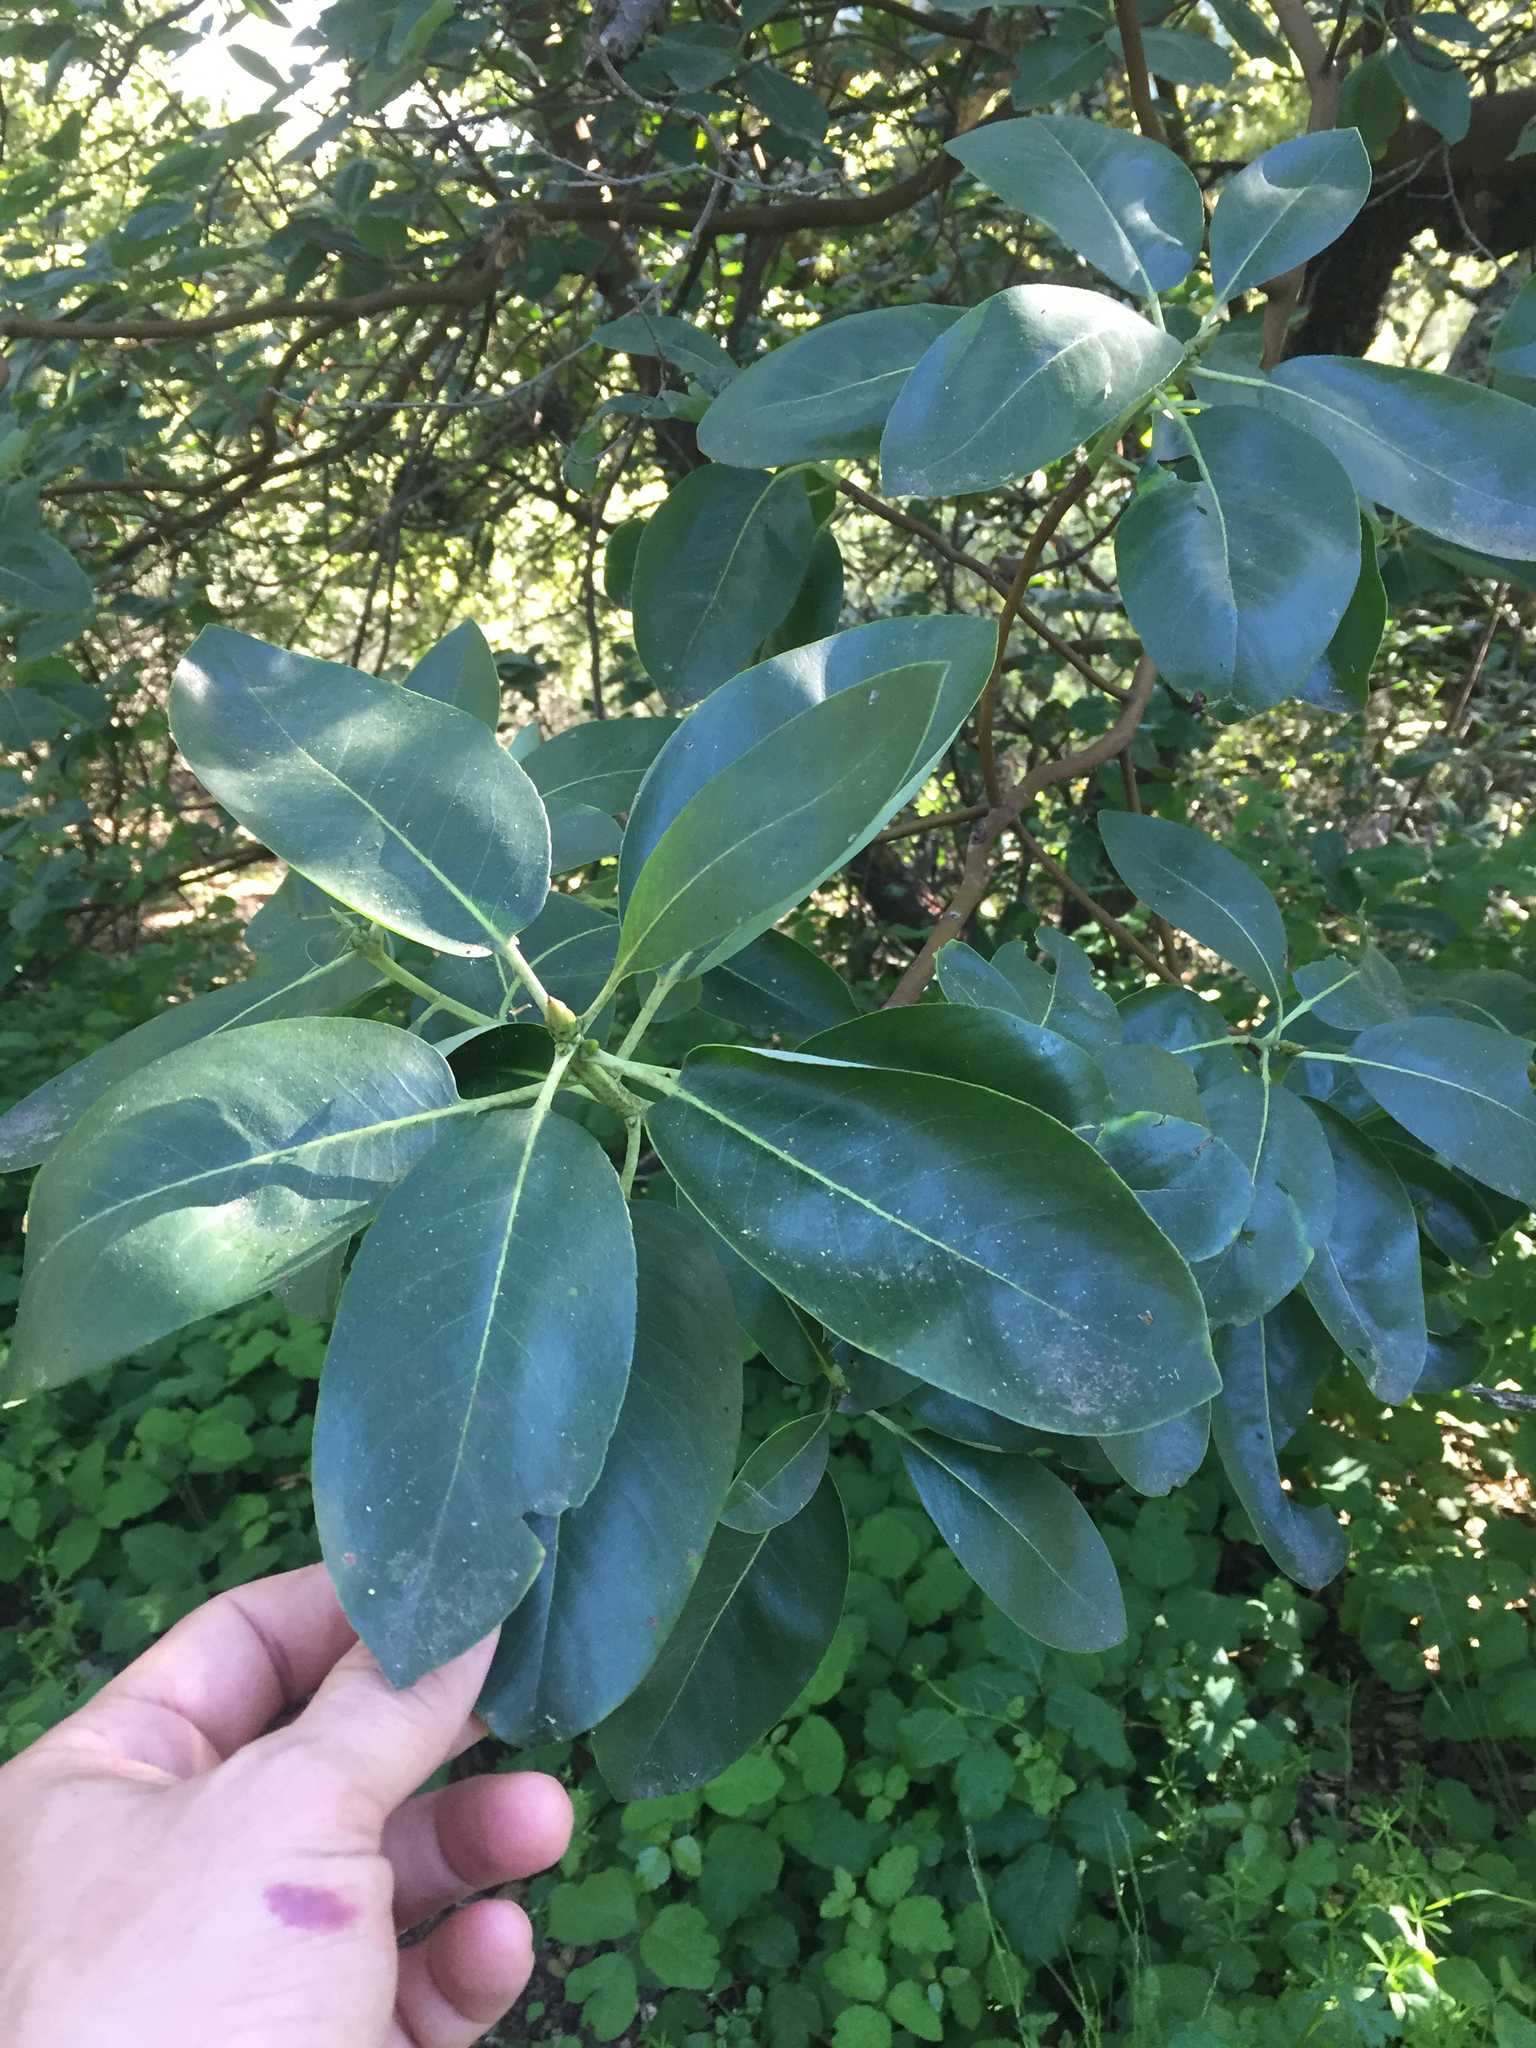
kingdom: Plantae
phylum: Tracheophyta
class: Magnoliopsida
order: Ericales
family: Ericaceae
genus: Arbutus
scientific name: Arbutus menziesii
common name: Pacific madrone
